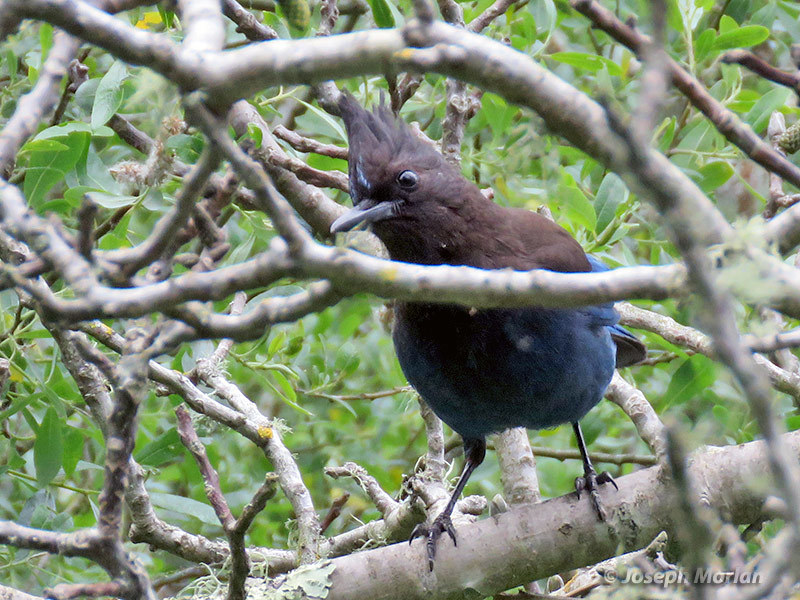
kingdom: Animalia
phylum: Chordata
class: Aves
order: Passeriformes
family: Corvidae
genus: Cyanocitta
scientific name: Cyanocitta stelleri
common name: Steller's jay
